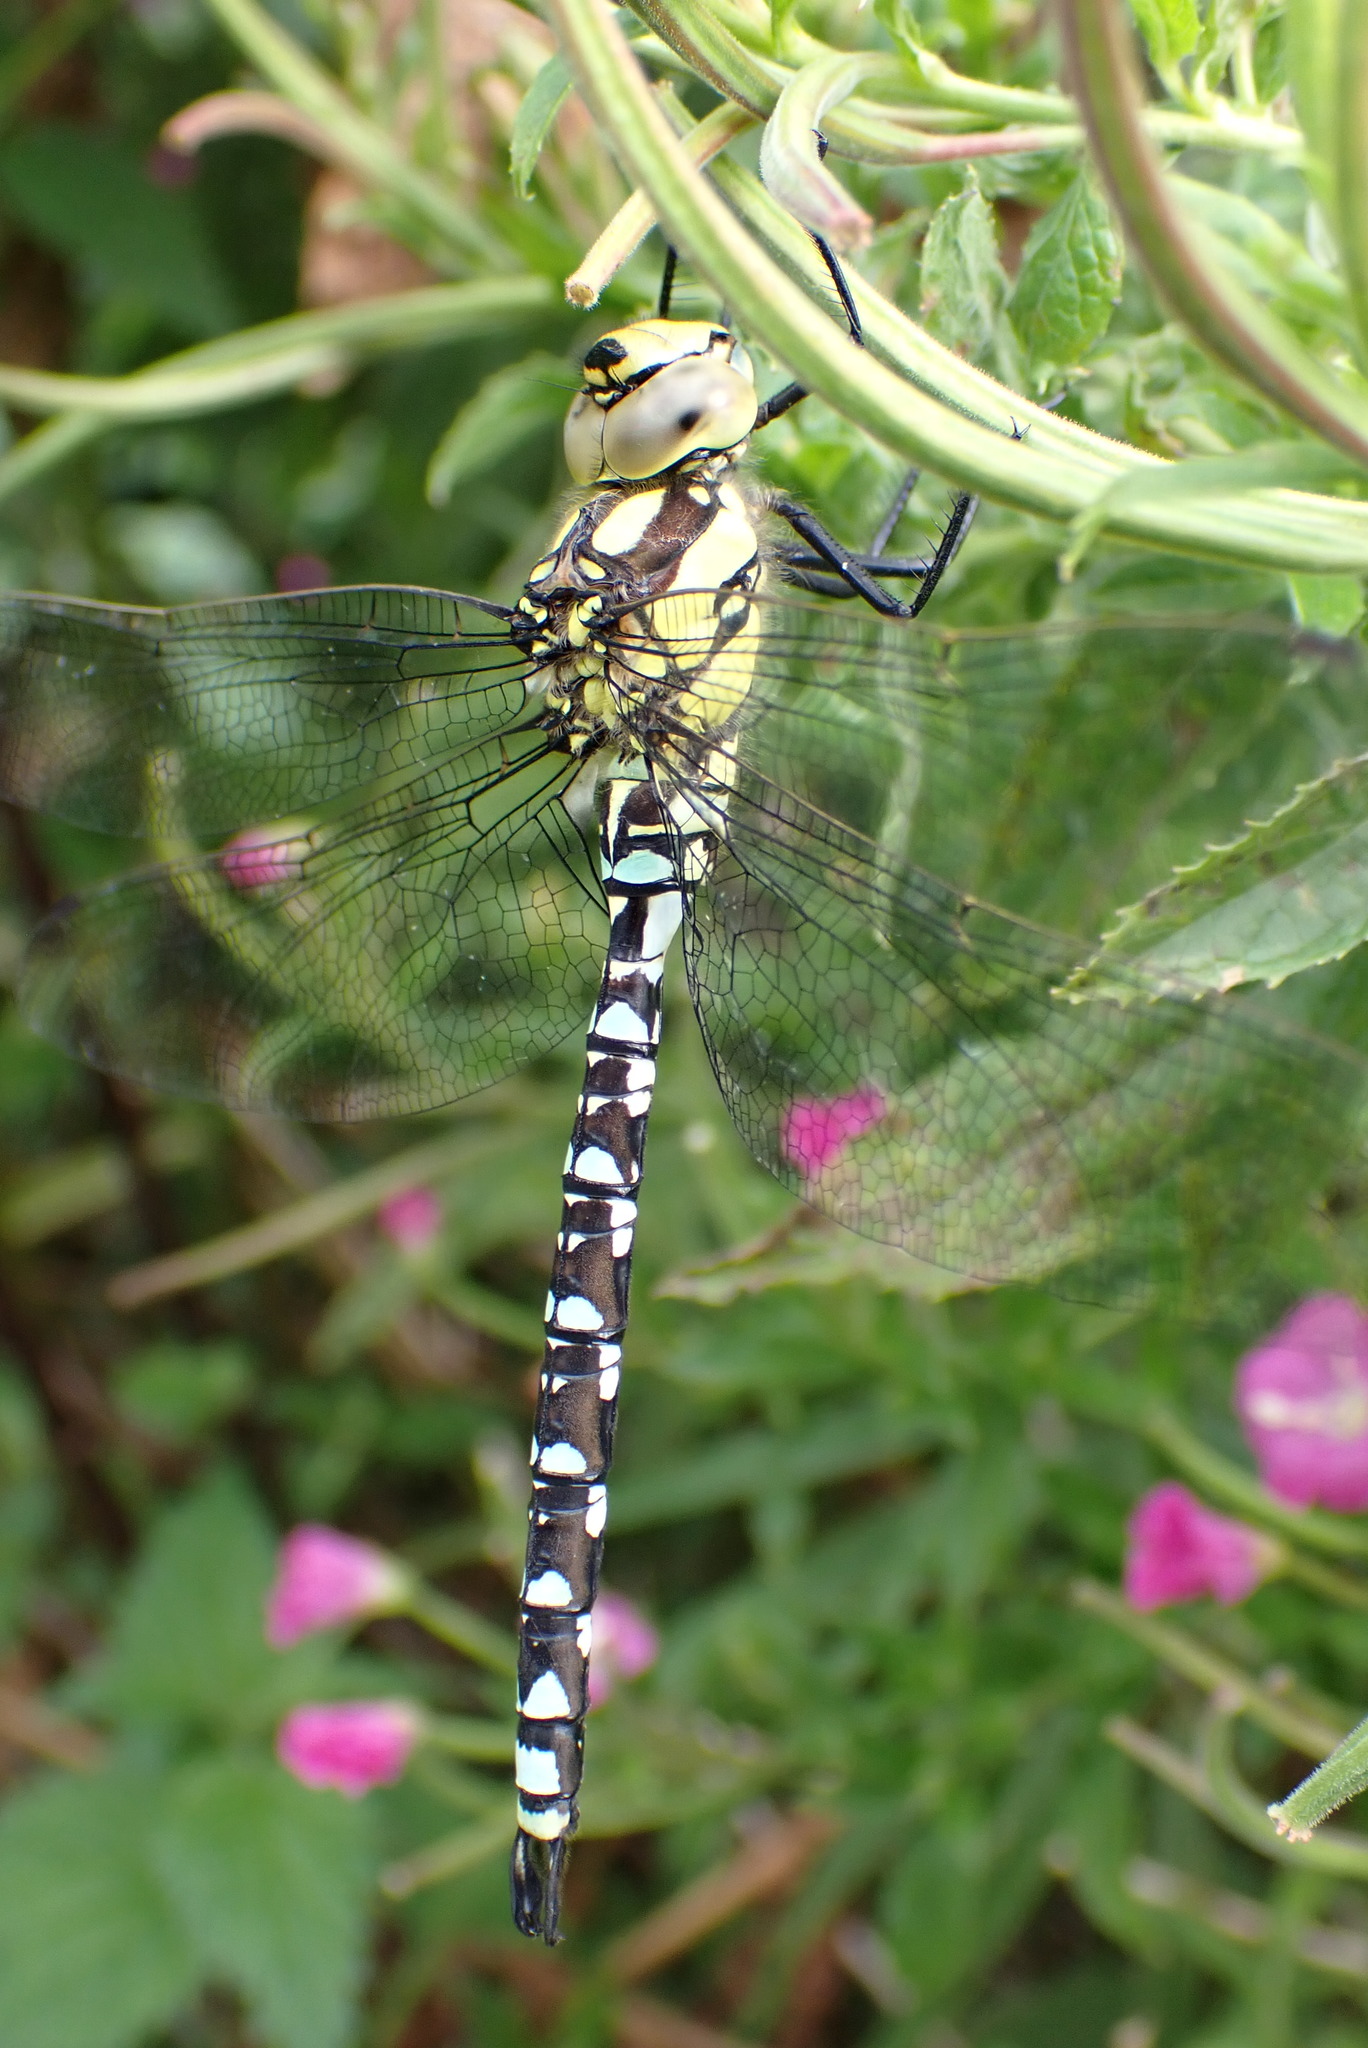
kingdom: Animalia
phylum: Arthropoda
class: Insecta
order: Odonata
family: Aeshnidae
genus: Aeshna
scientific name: Aeshna cyanea
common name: Southern hawker
